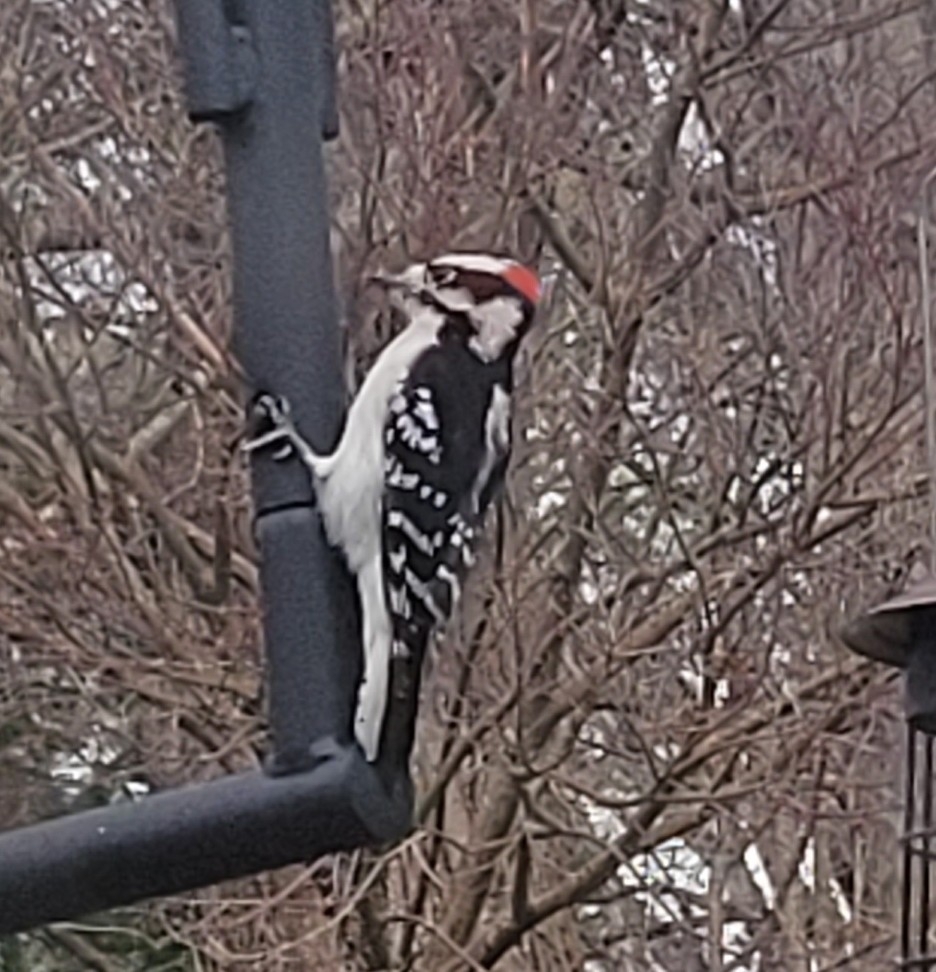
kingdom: Animalia
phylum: Chordata
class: Aves
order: Piciformes
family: Picidae
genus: Dryobates
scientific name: Dryobates pubescens
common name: Downy woodpecker
